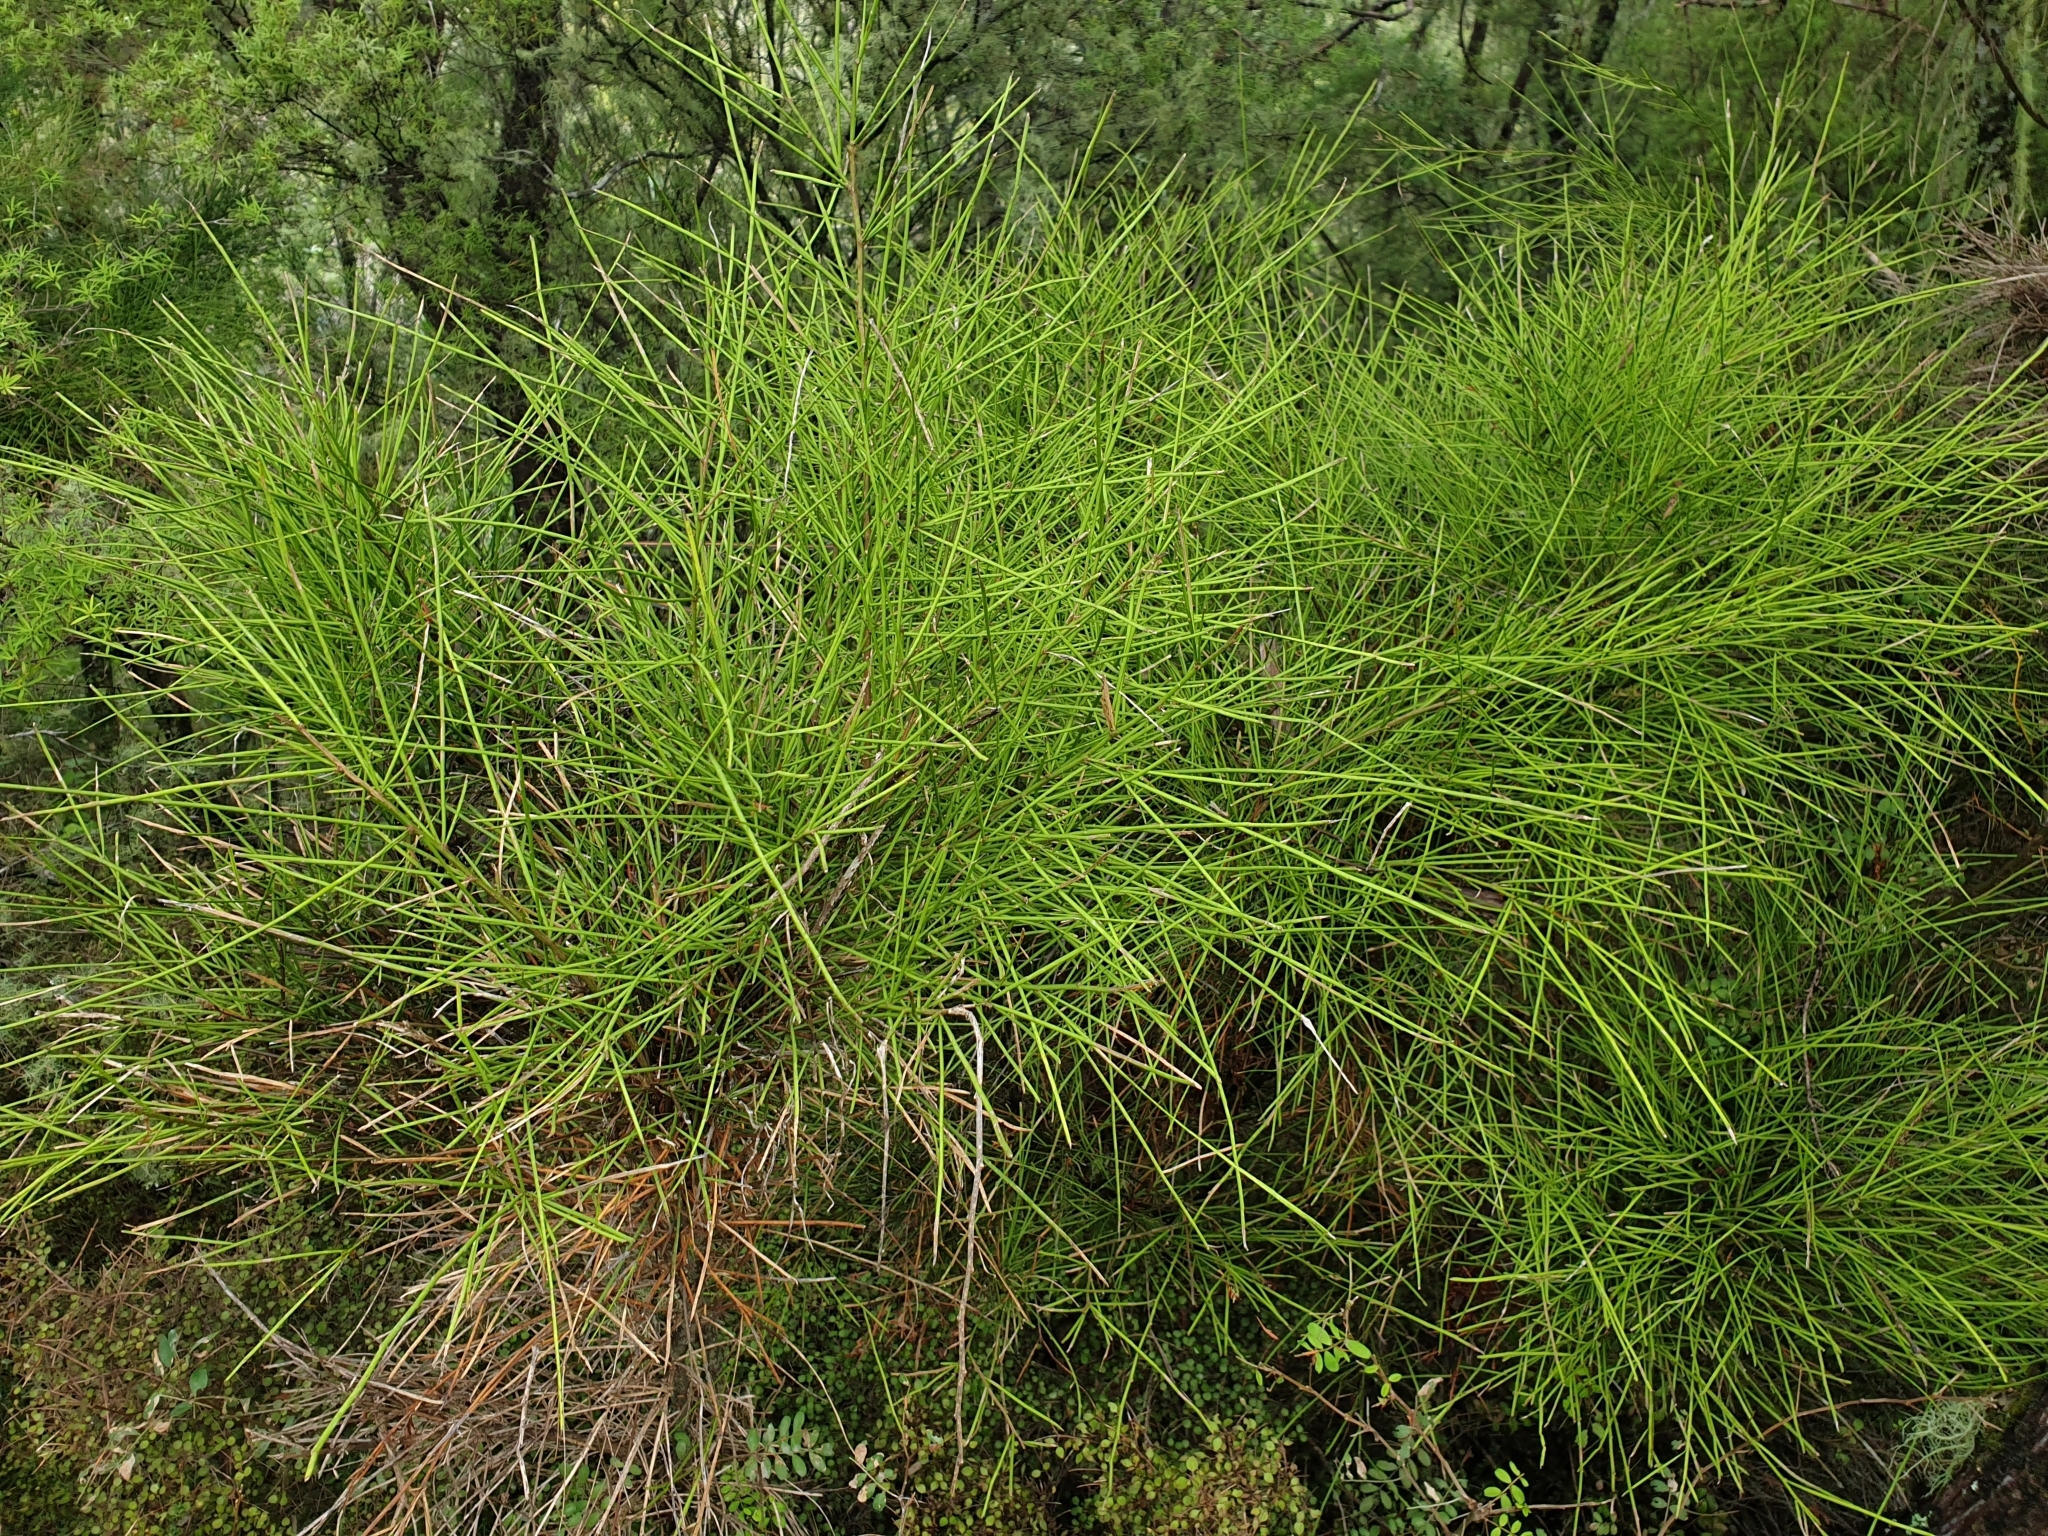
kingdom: Plantae
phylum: Tracheophyta
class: Magnoliopsida
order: Fabales
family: Fabaceae
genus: Carmichaelia
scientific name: Carmichaelia australis
